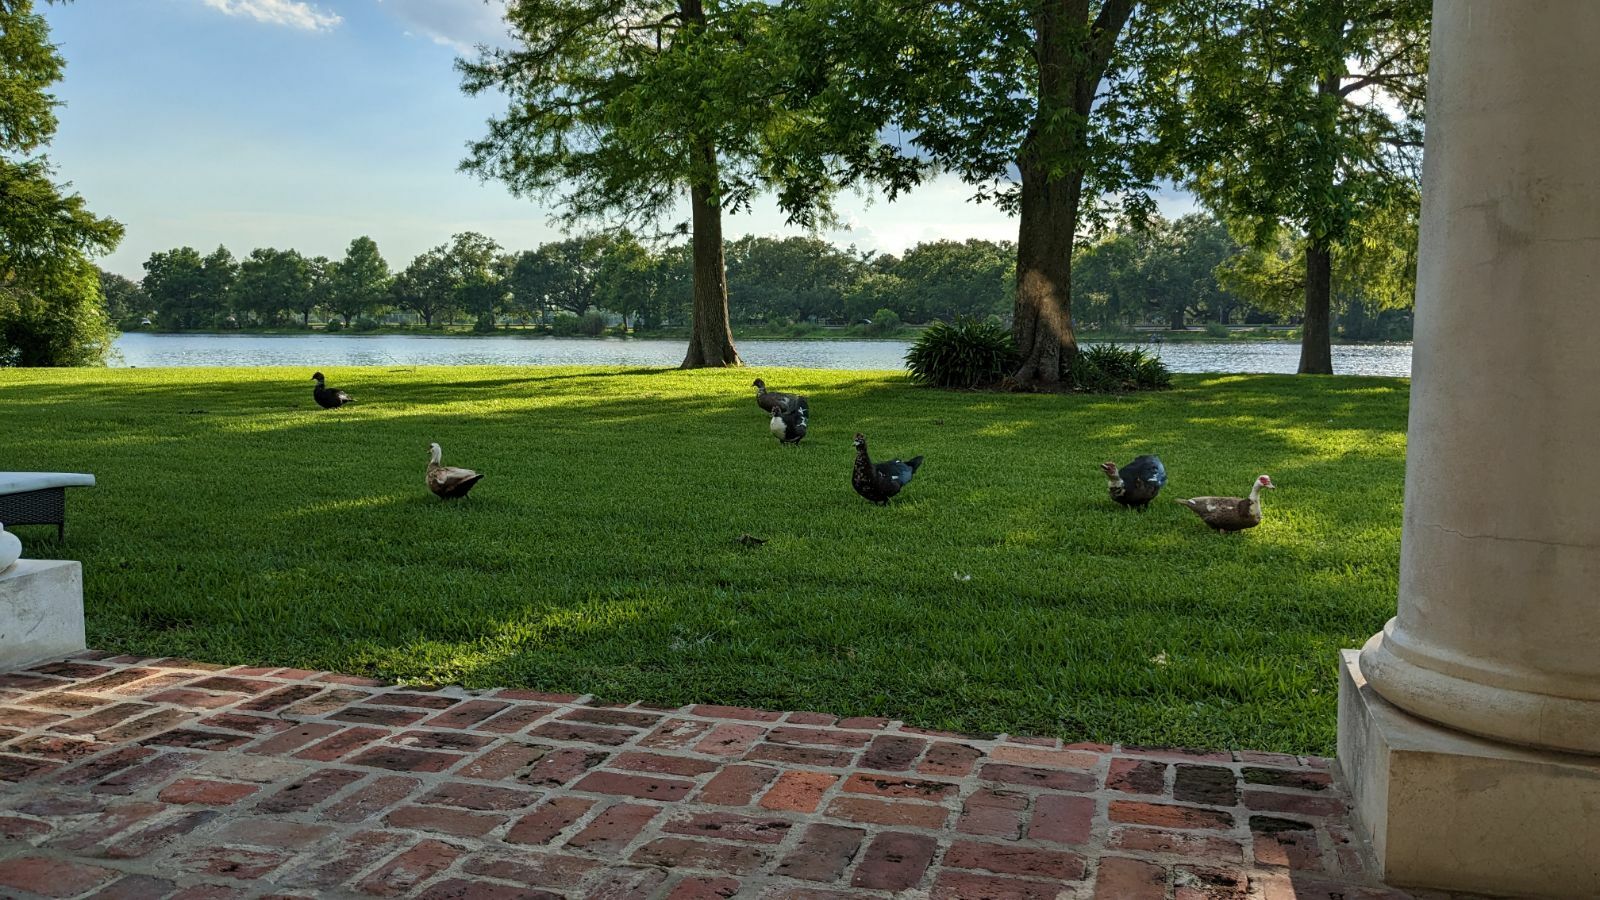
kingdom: Animalia
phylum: Chordata
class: Aves
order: Anseriformes
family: Anatidae
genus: Cairina
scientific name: Cairina moschata
